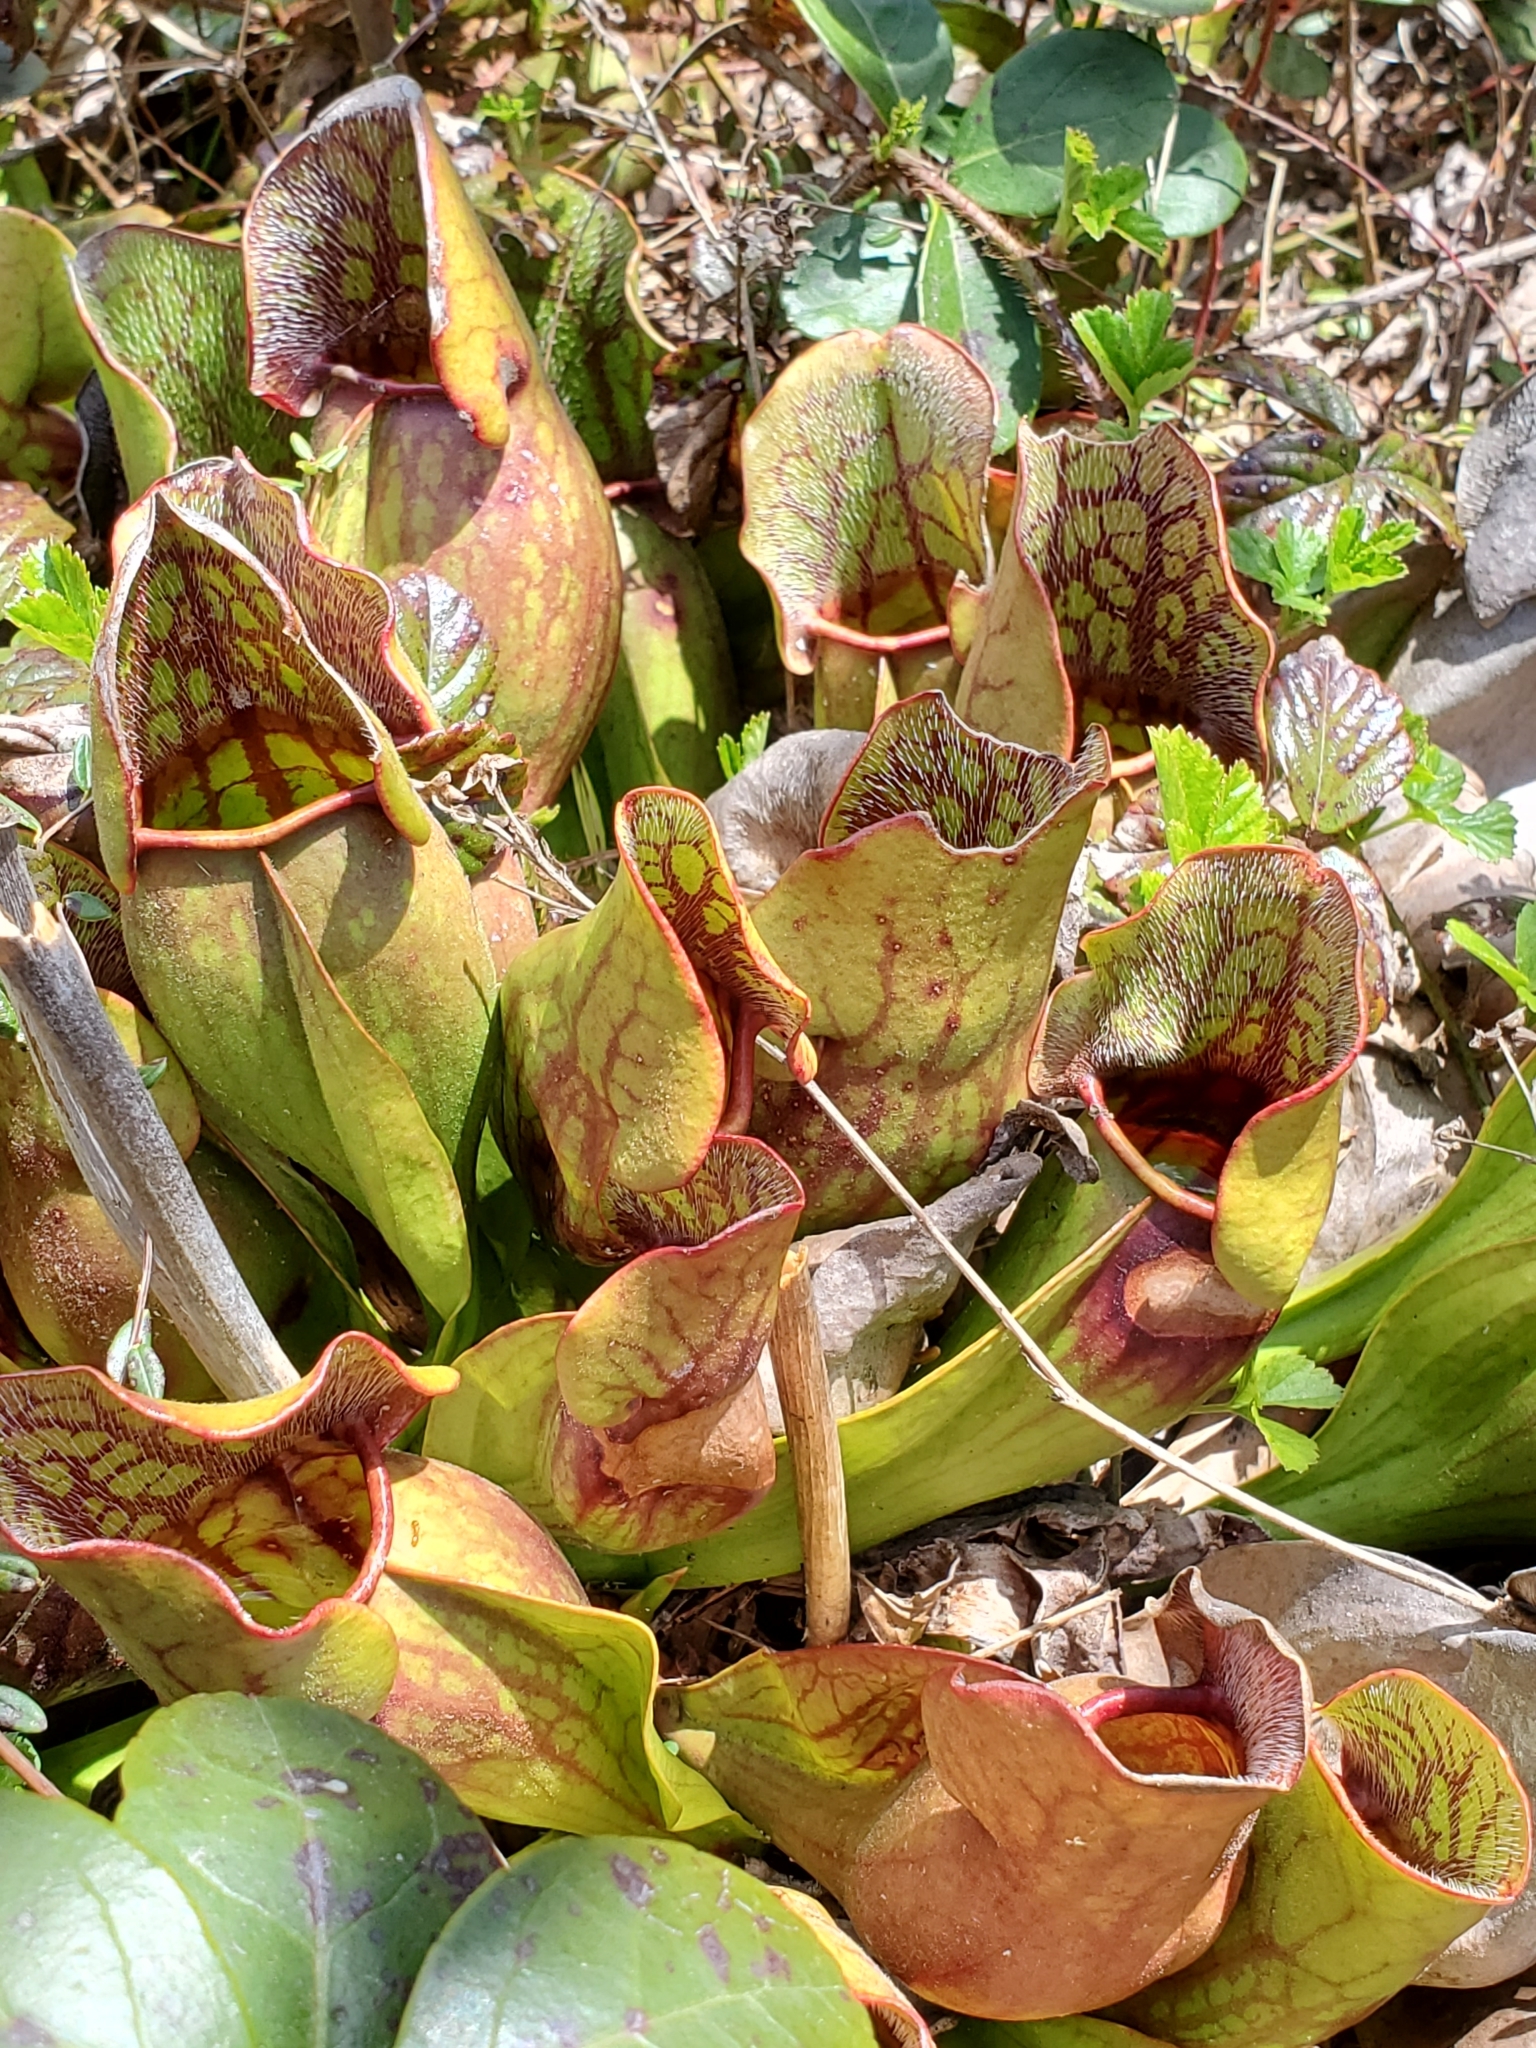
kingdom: Plantae
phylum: Tracheophyta
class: Magnoliopsida
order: Ericales
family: Sarraceniaceae
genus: Sarracenia
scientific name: Sarracenia purpurea
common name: Pitcherplant
